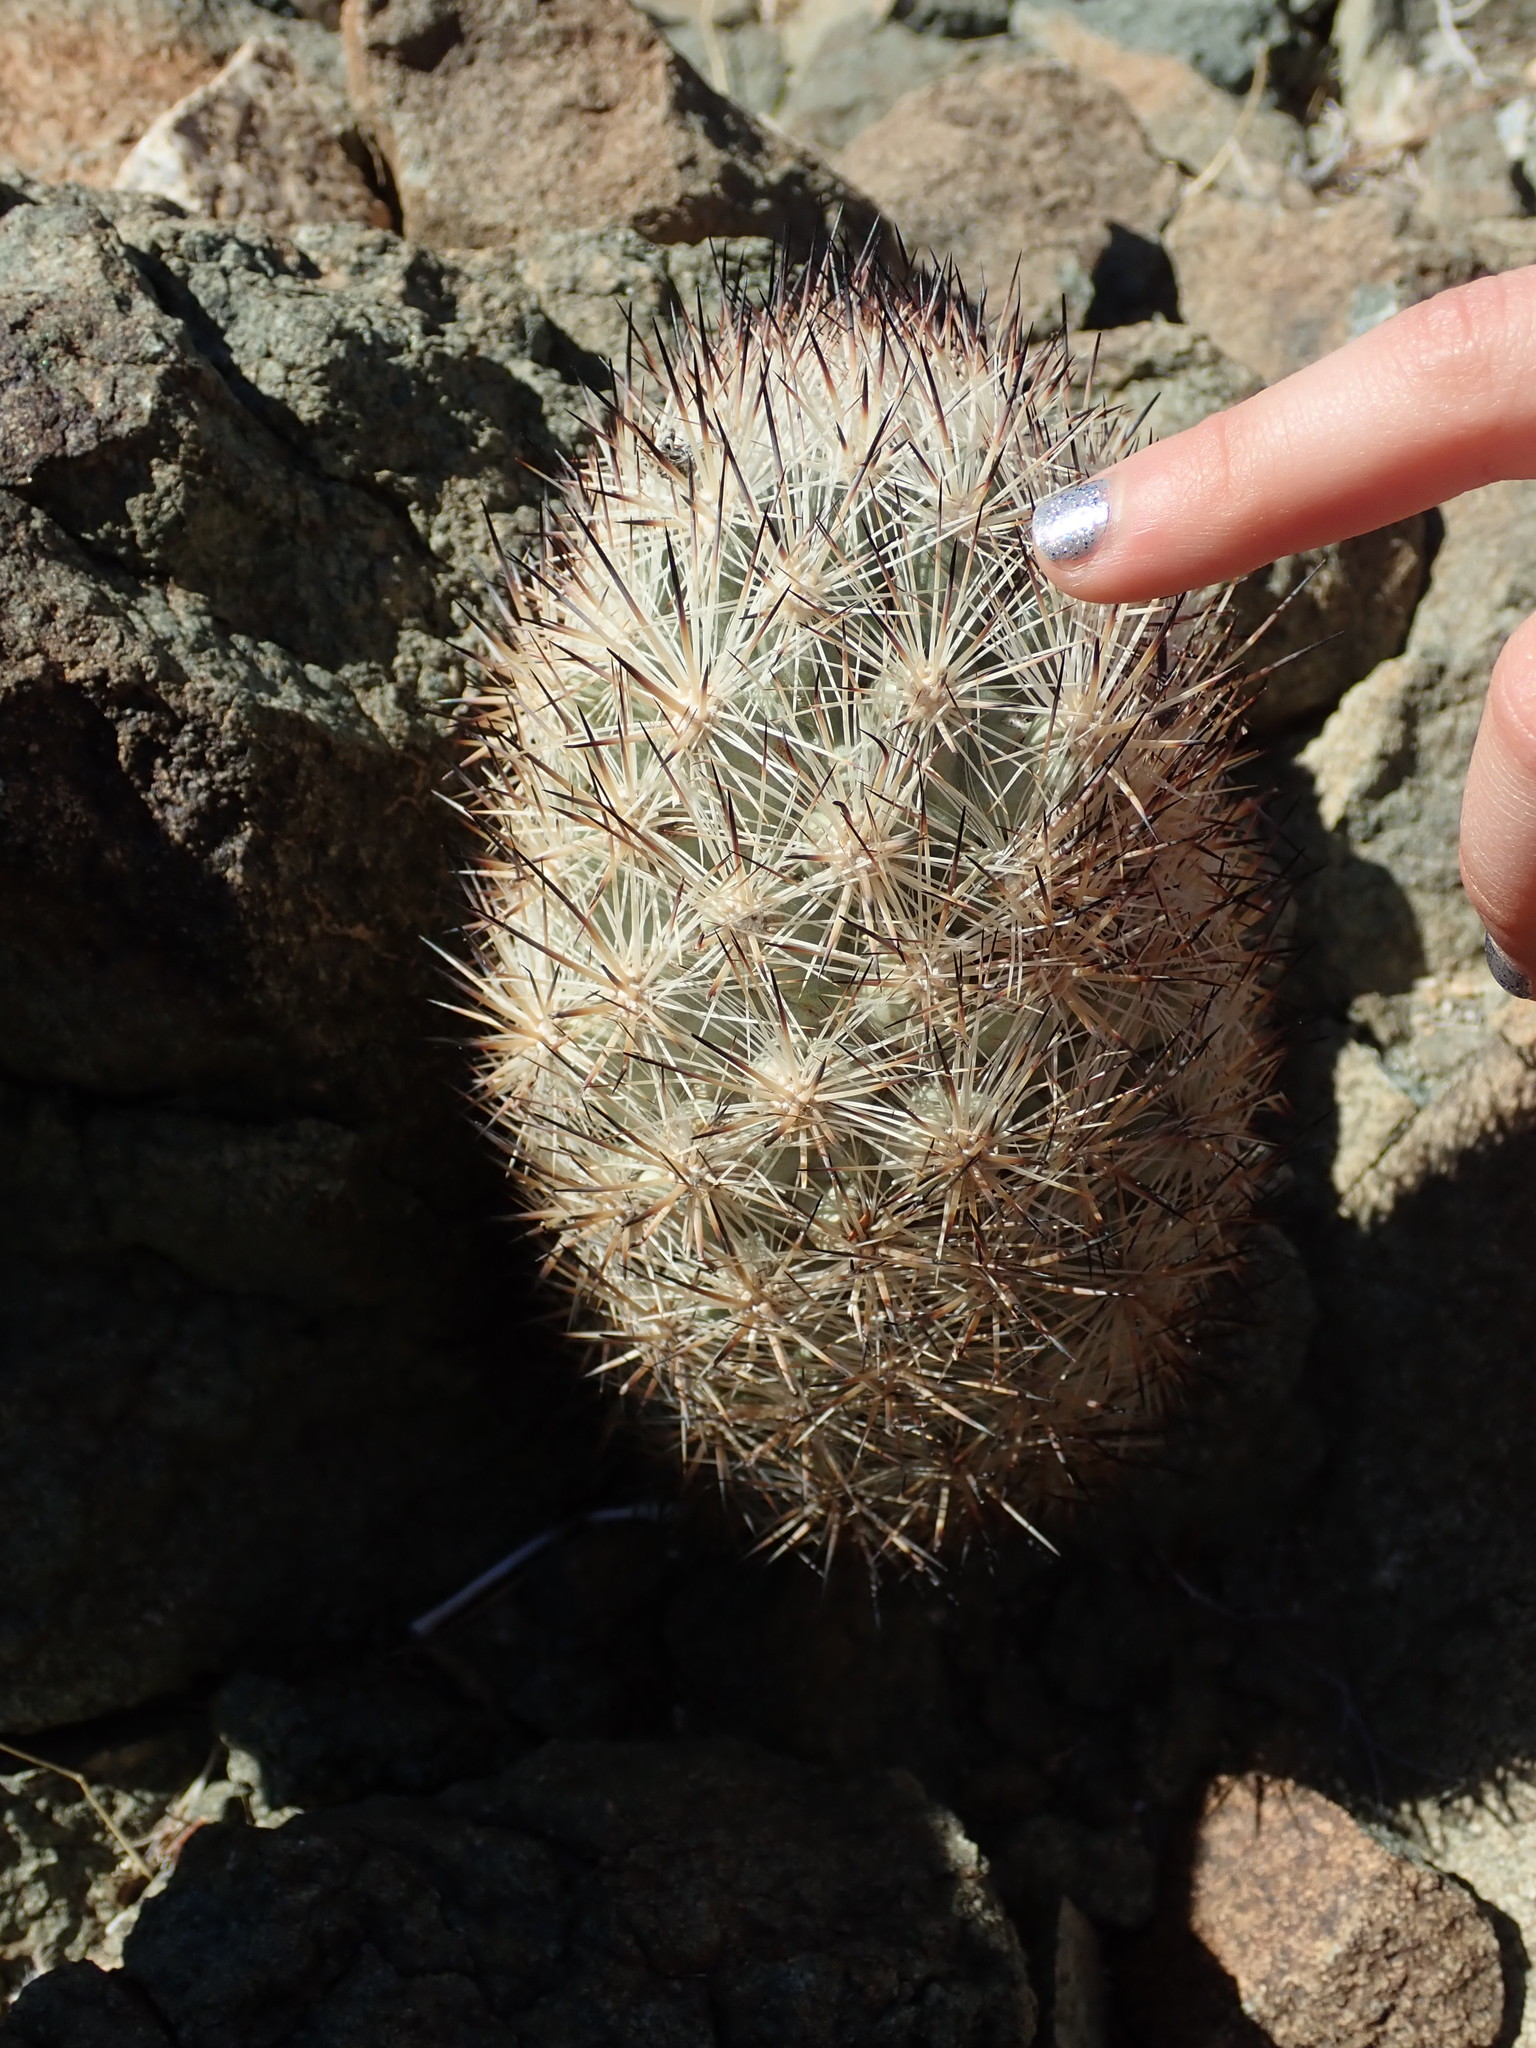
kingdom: Plantae
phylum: Tracheophyta
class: Magnoliopsida
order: Caryophyllales
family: Cactaceae
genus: Pelecyphora
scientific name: Pelecyphora alversonii
